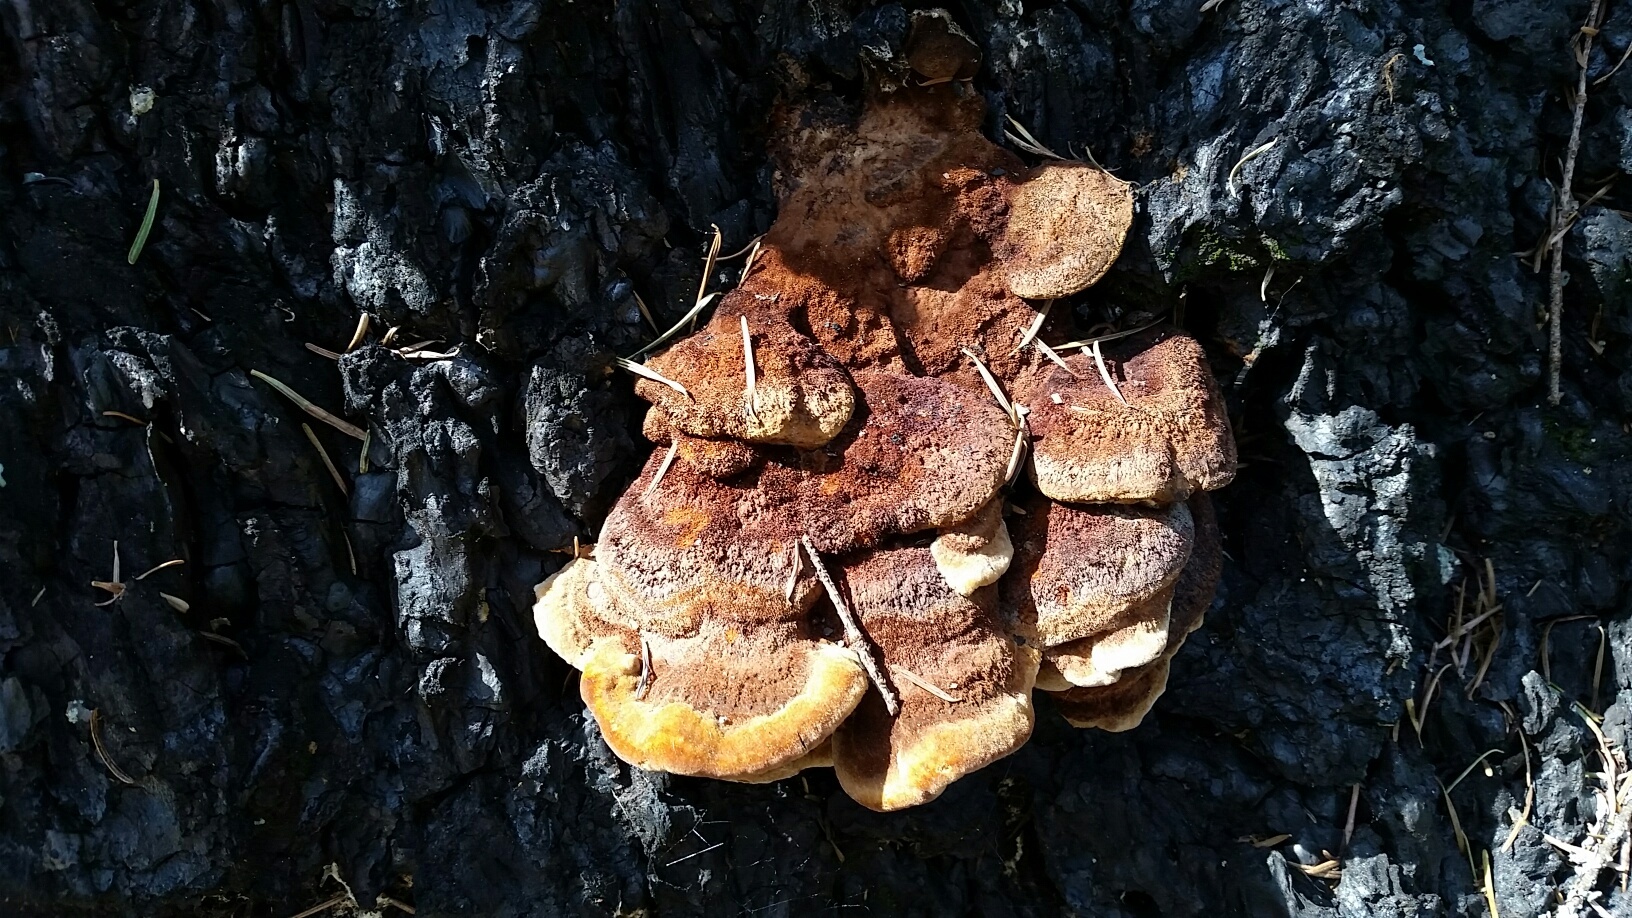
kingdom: Fungi
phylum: Basidiomycota
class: Agaricomycetes
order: Hymenochaetales
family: Hymenochaetaceae
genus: Phellinus
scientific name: Phellinus gilvus
